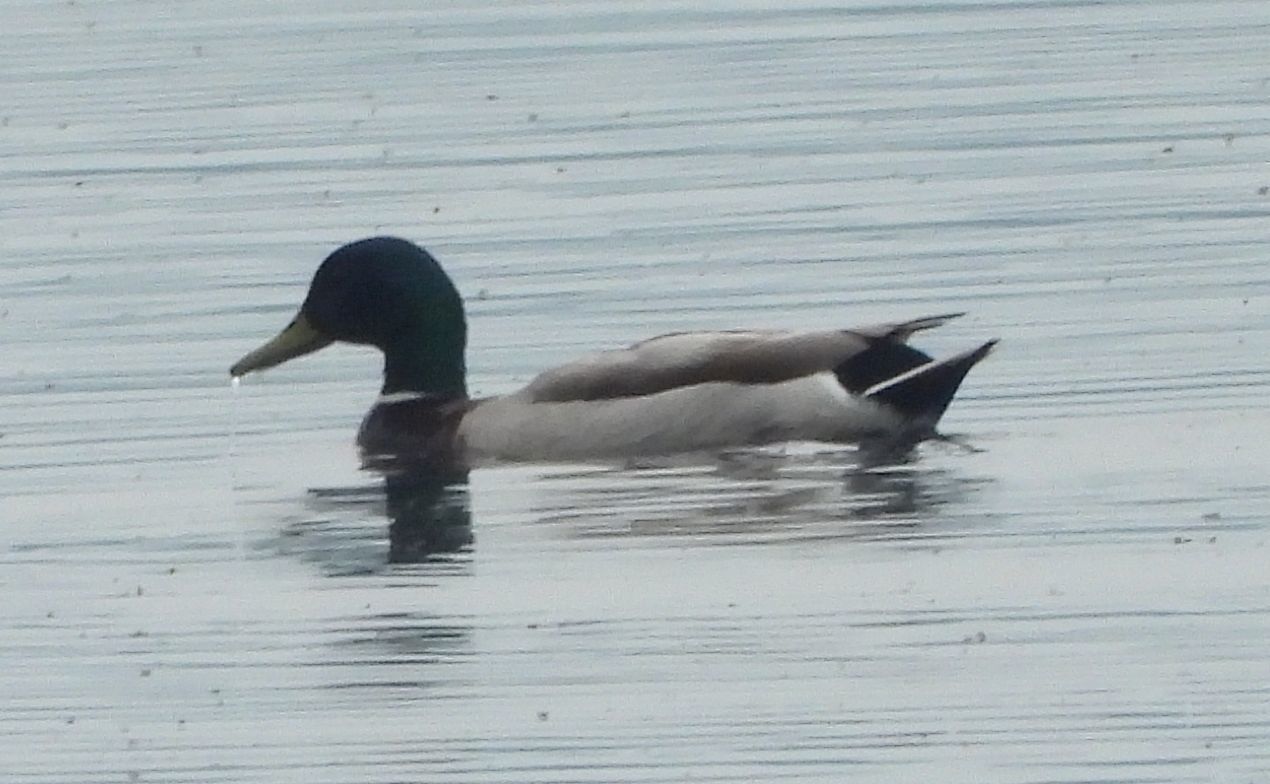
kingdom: Animalia
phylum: Chordata
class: Aves
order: Anseriformes
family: Anatidae
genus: Anas
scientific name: Anas platyrhynchos
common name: Mallard
